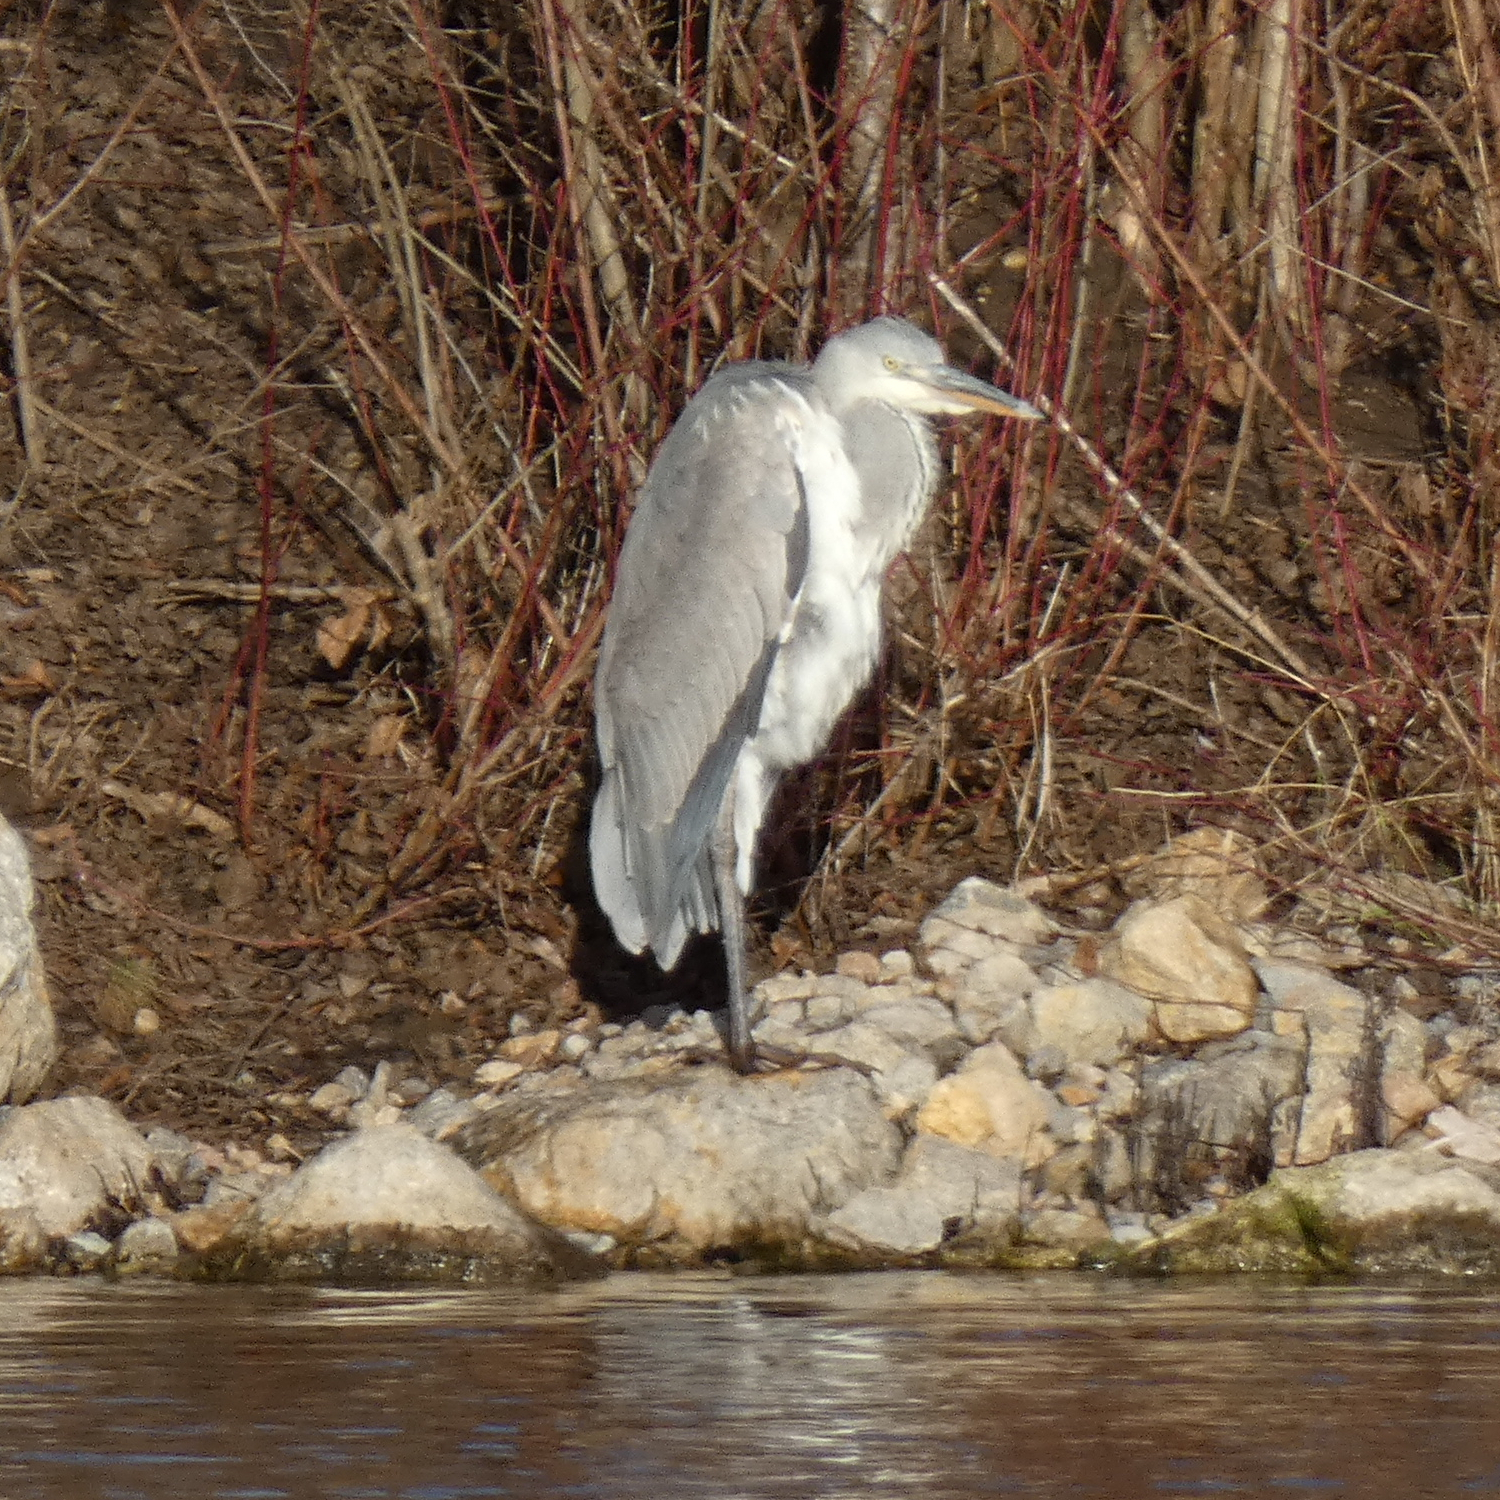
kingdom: Animalia
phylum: Chordata
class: Aves
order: Pelecaniformes
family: Ardeidae
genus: Ardea
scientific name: Ardea cinerea
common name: Grey heron
